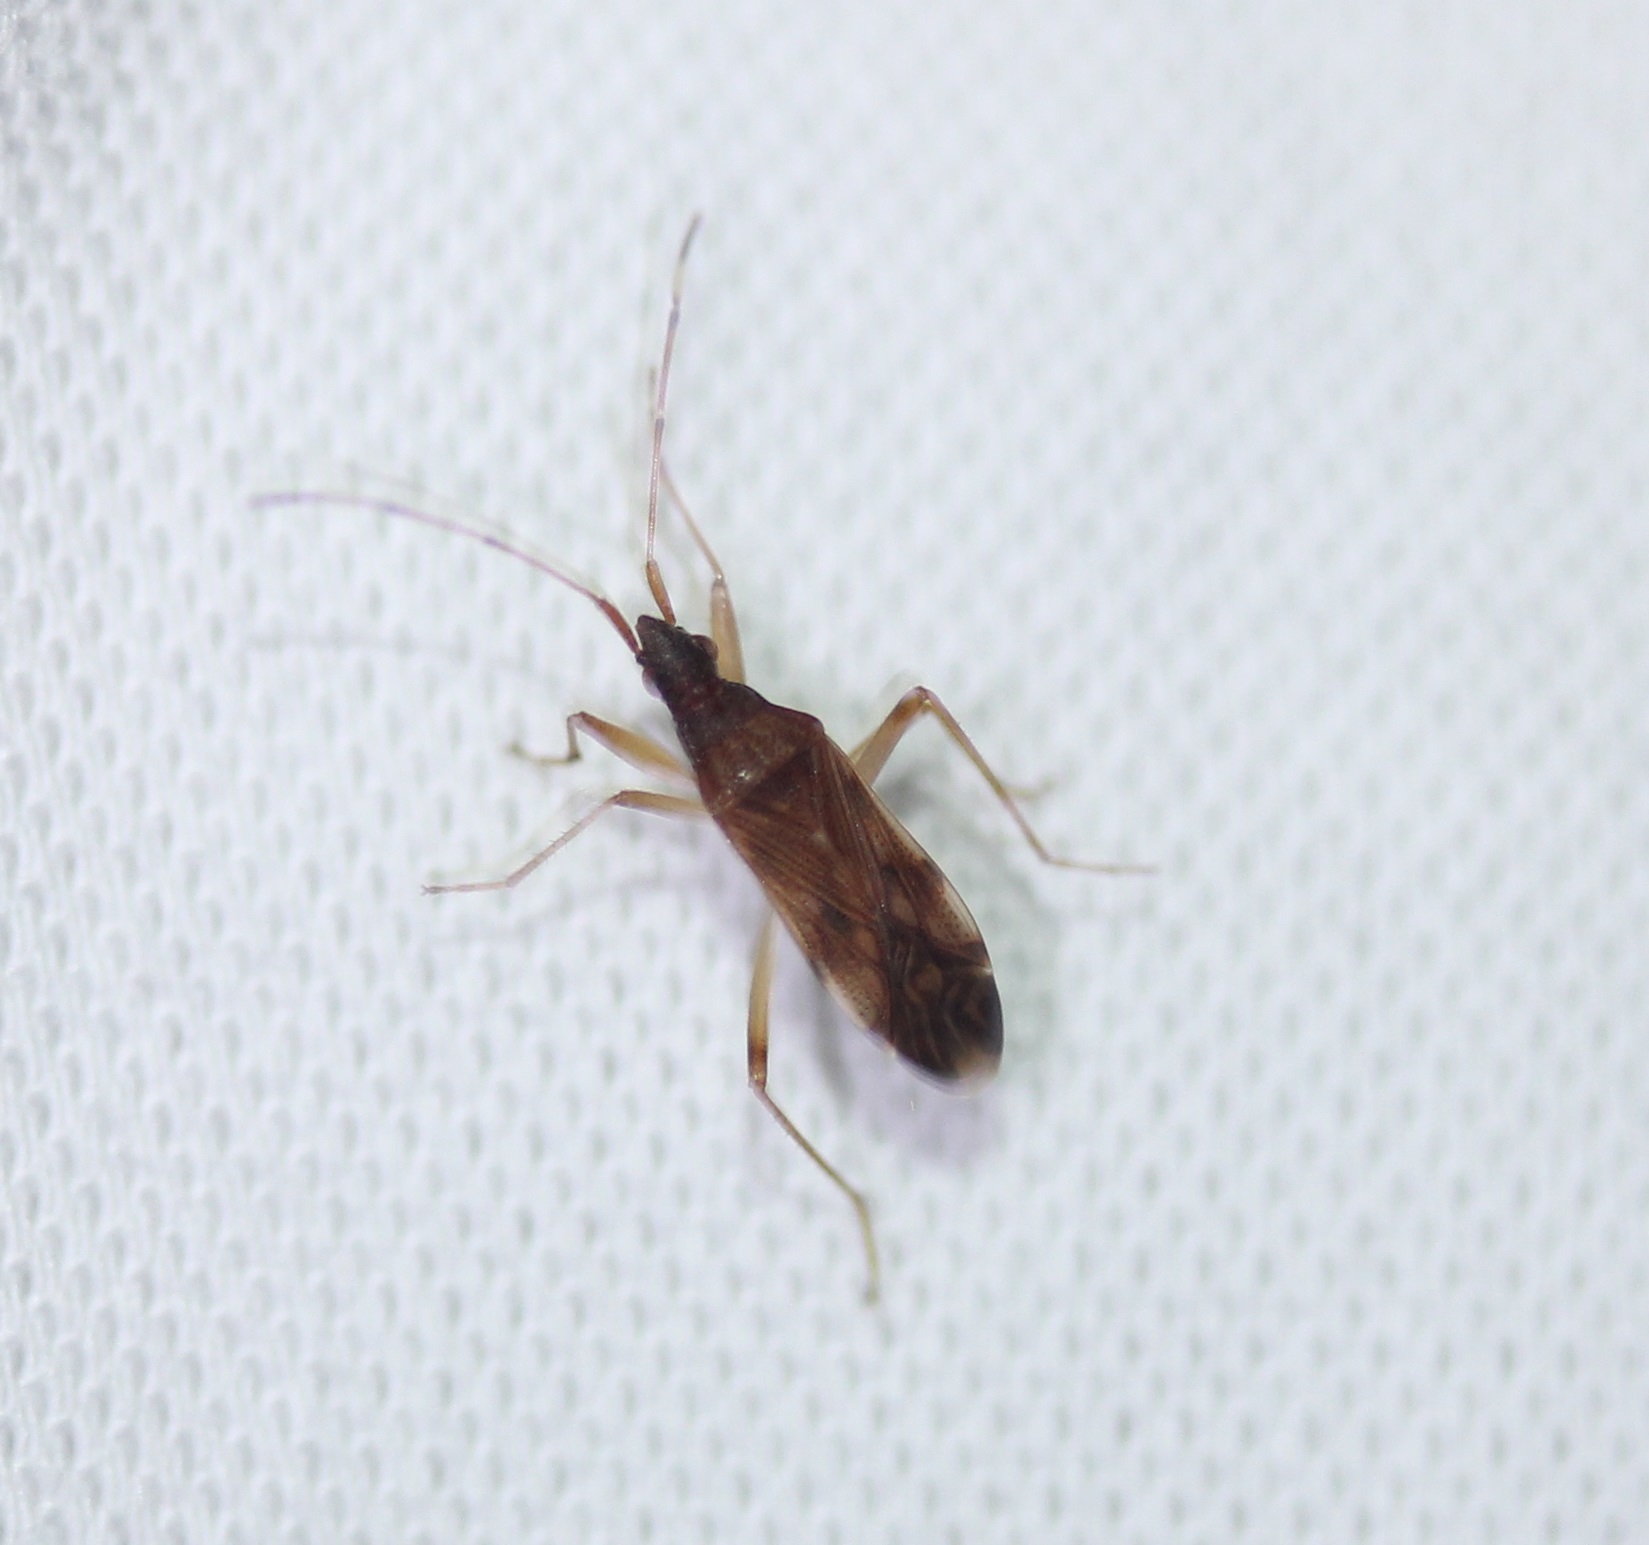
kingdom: Animalia
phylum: Arthropoda
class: Insecta
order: Hemiptera
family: Rhyparochromidae
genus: Ozophora
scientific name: Ozophora picturata
